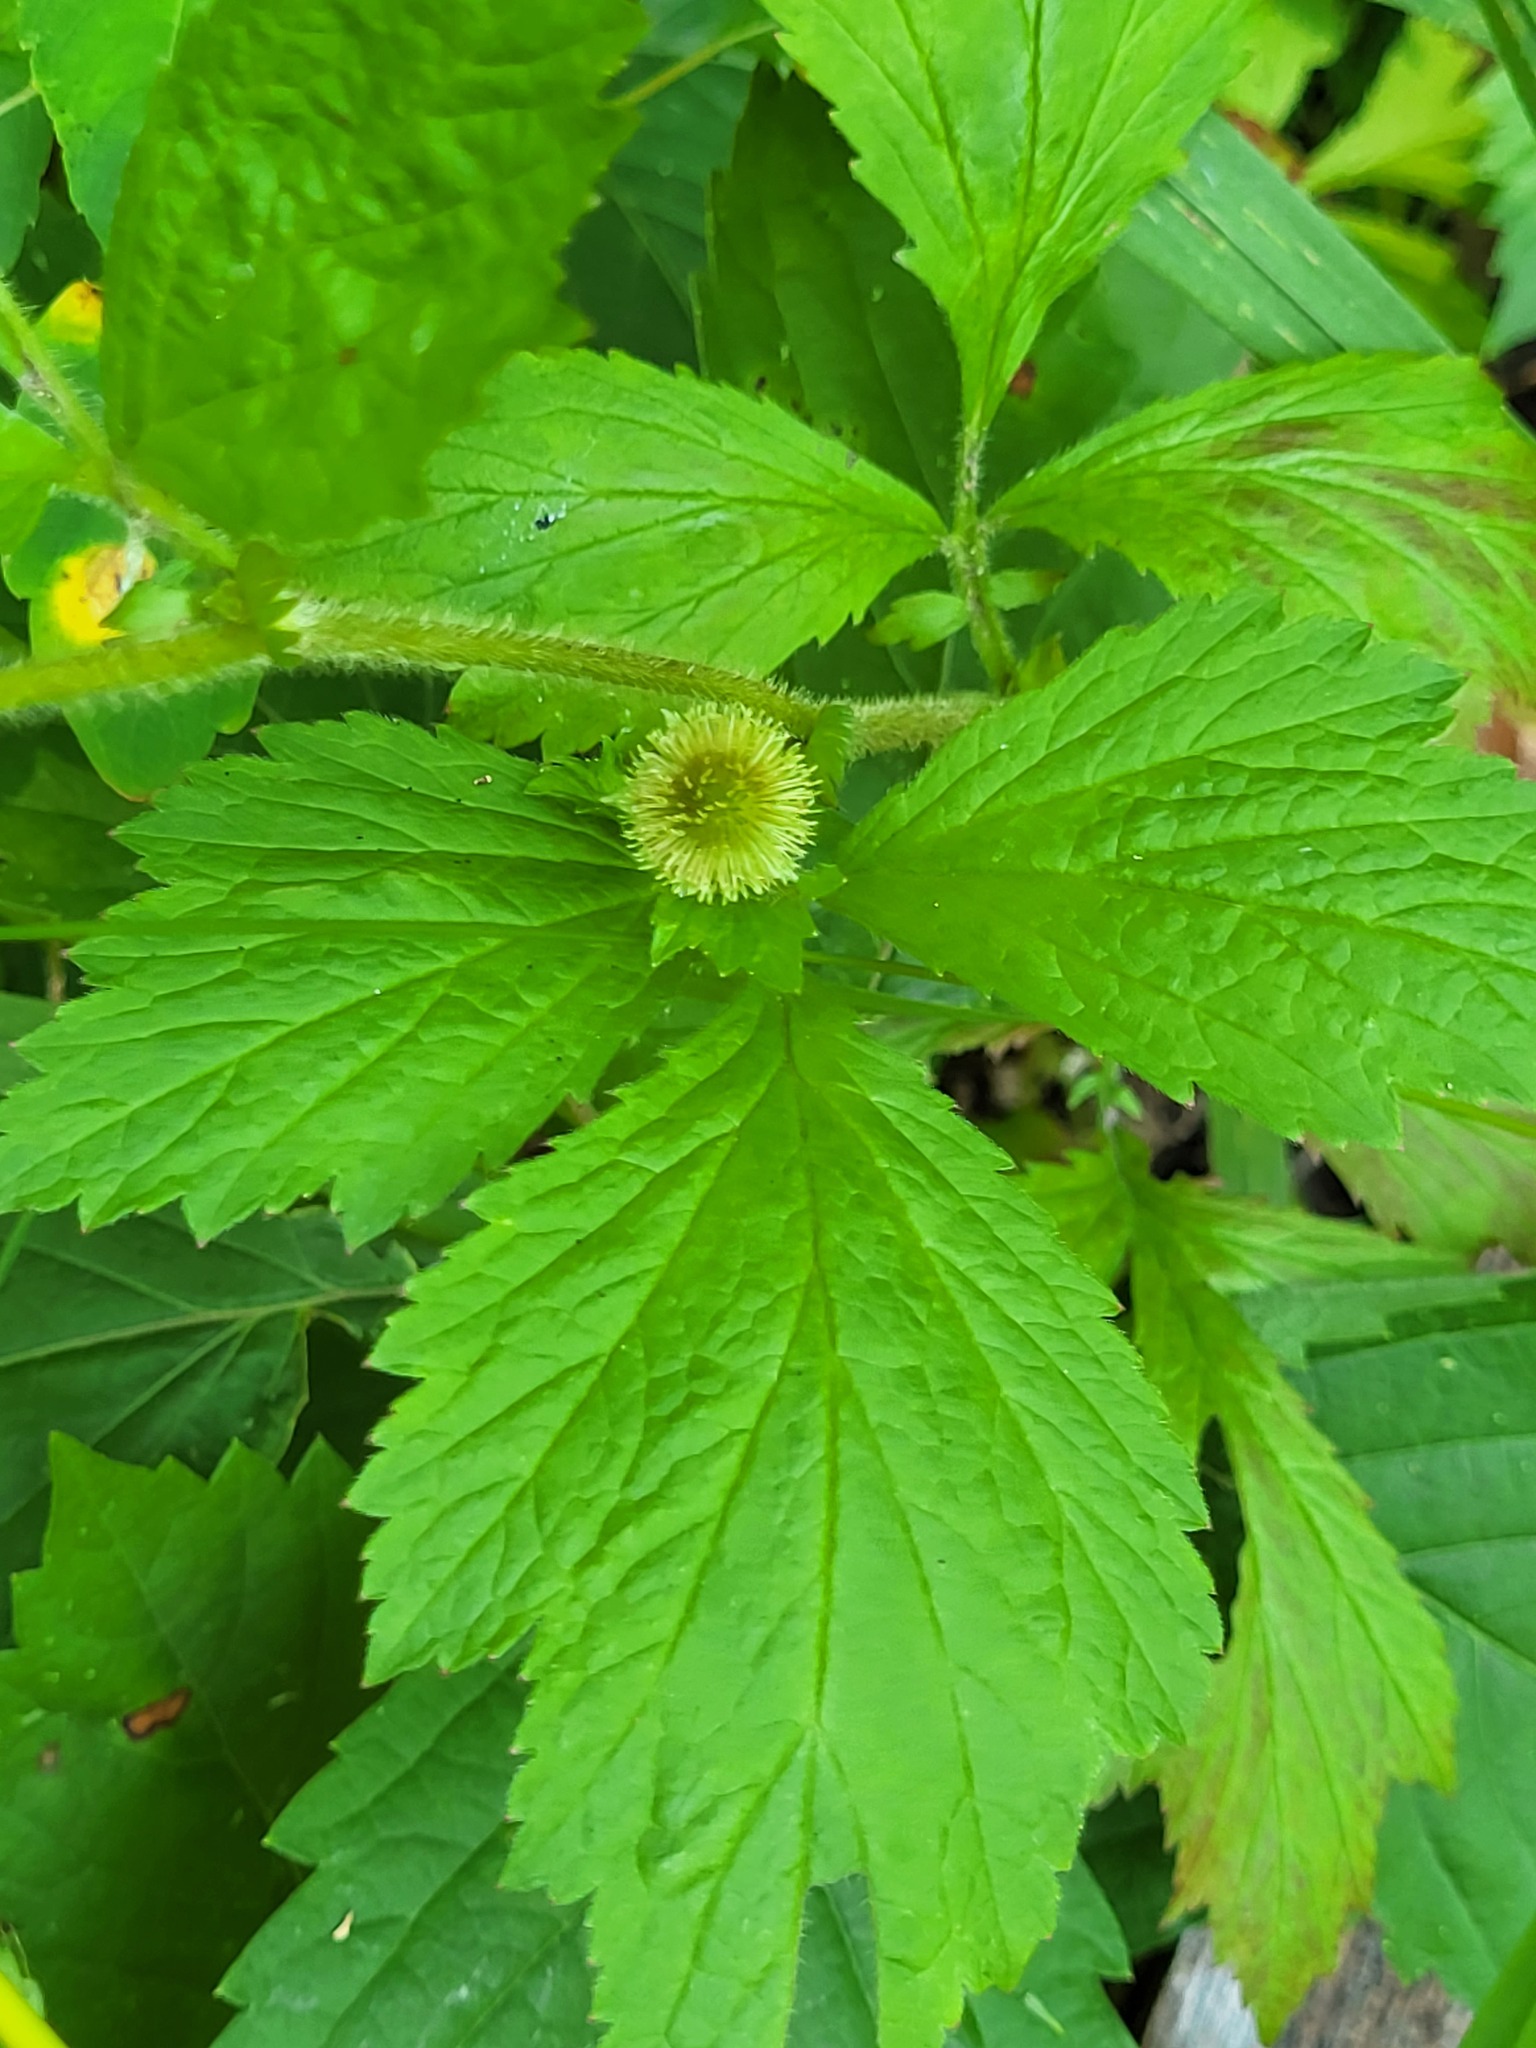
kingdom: Plantae
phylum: Tracheophyta
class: Magnoliopsida
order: Rosales
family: Rosaceae
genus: Geum
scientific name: Geum laciniatum
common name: Rough avens
